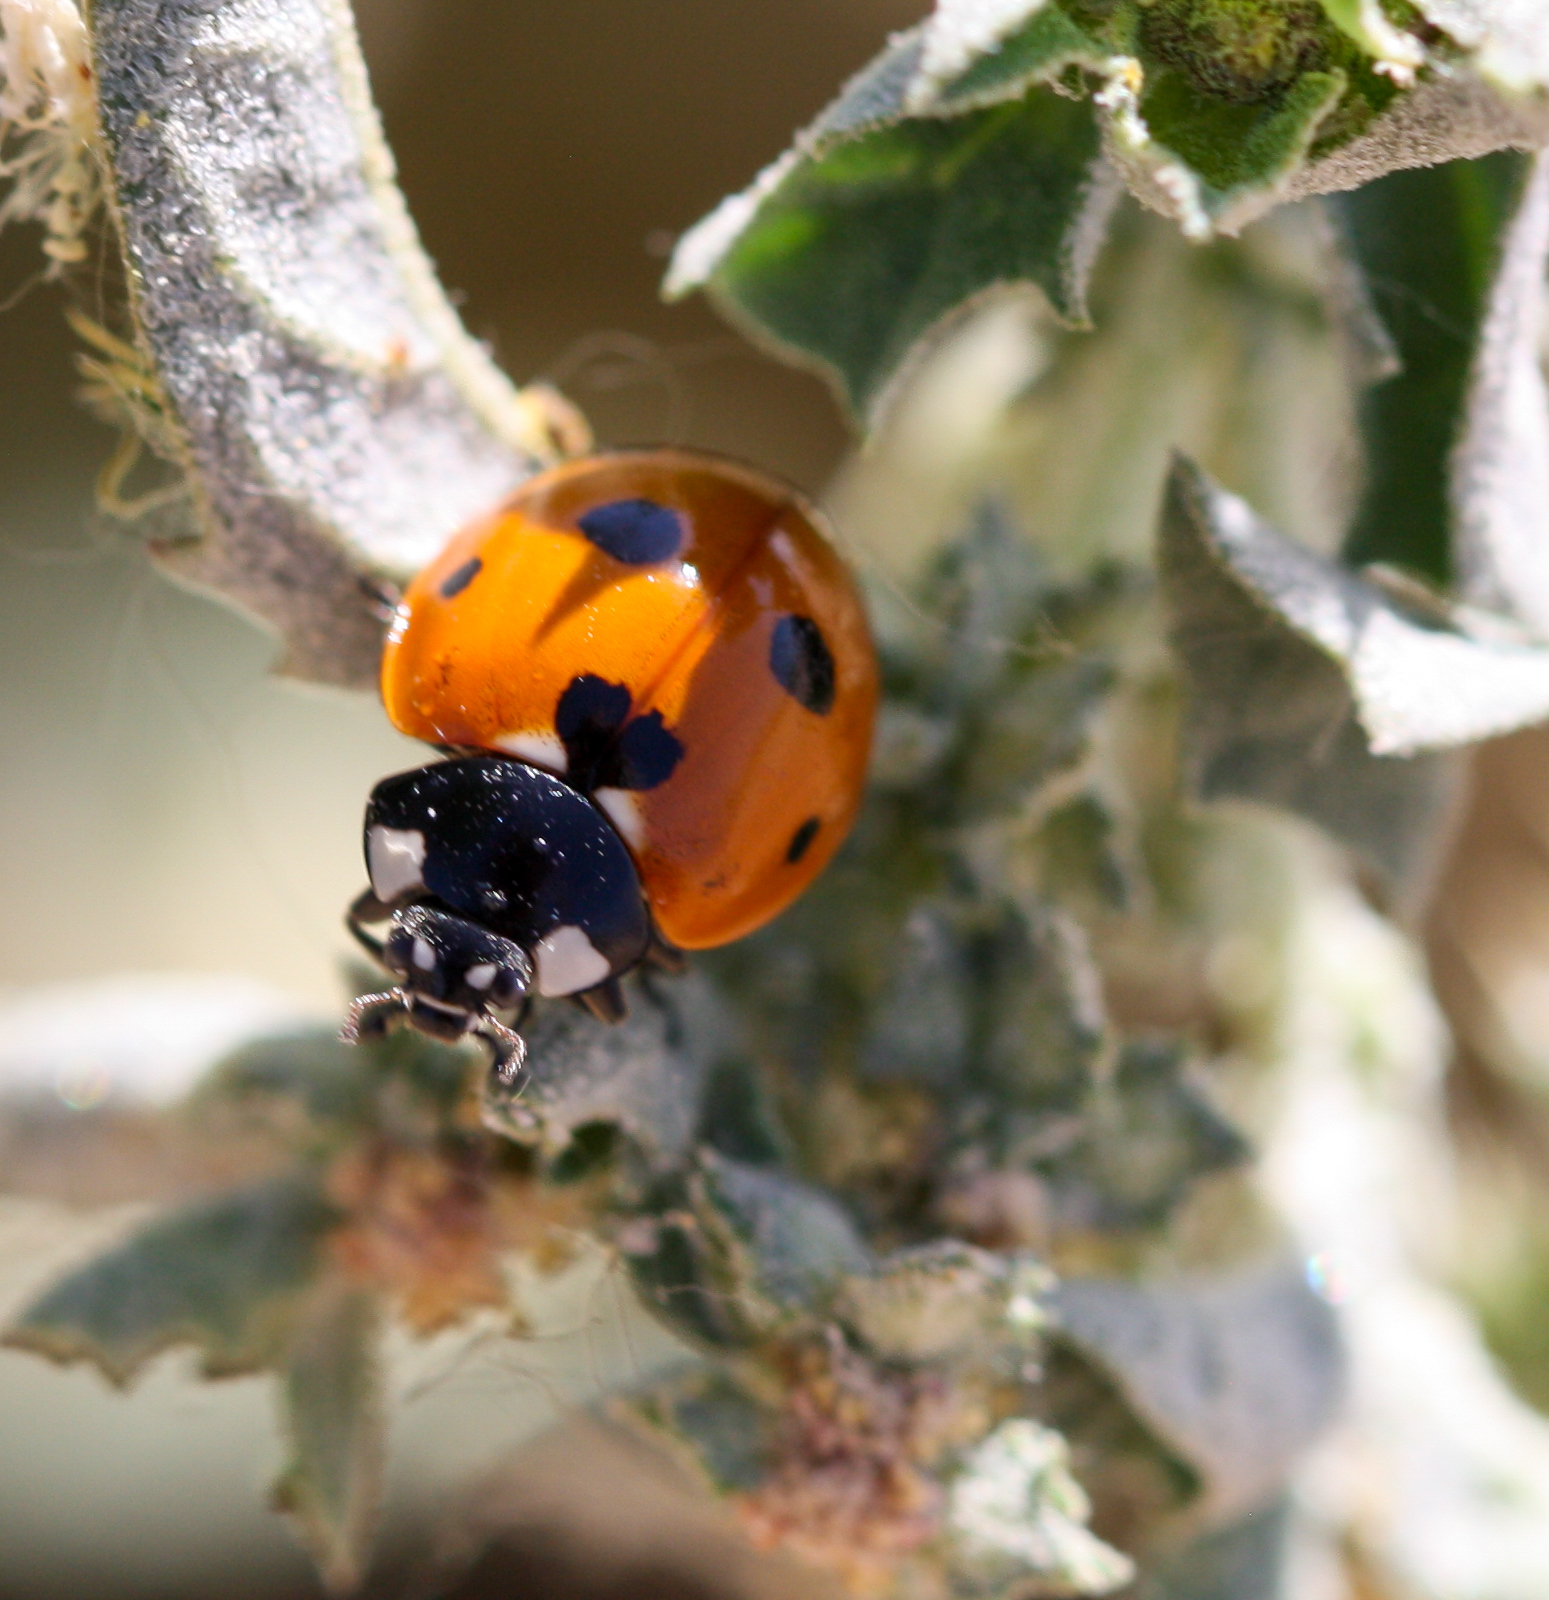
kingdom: Animalia
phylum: Arthropoda
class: Insecta
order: Coleoptera
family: Coccinellidae
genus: Coccinella
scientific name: Coccinella septempunctata
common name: Sevenspotted lady beetle
